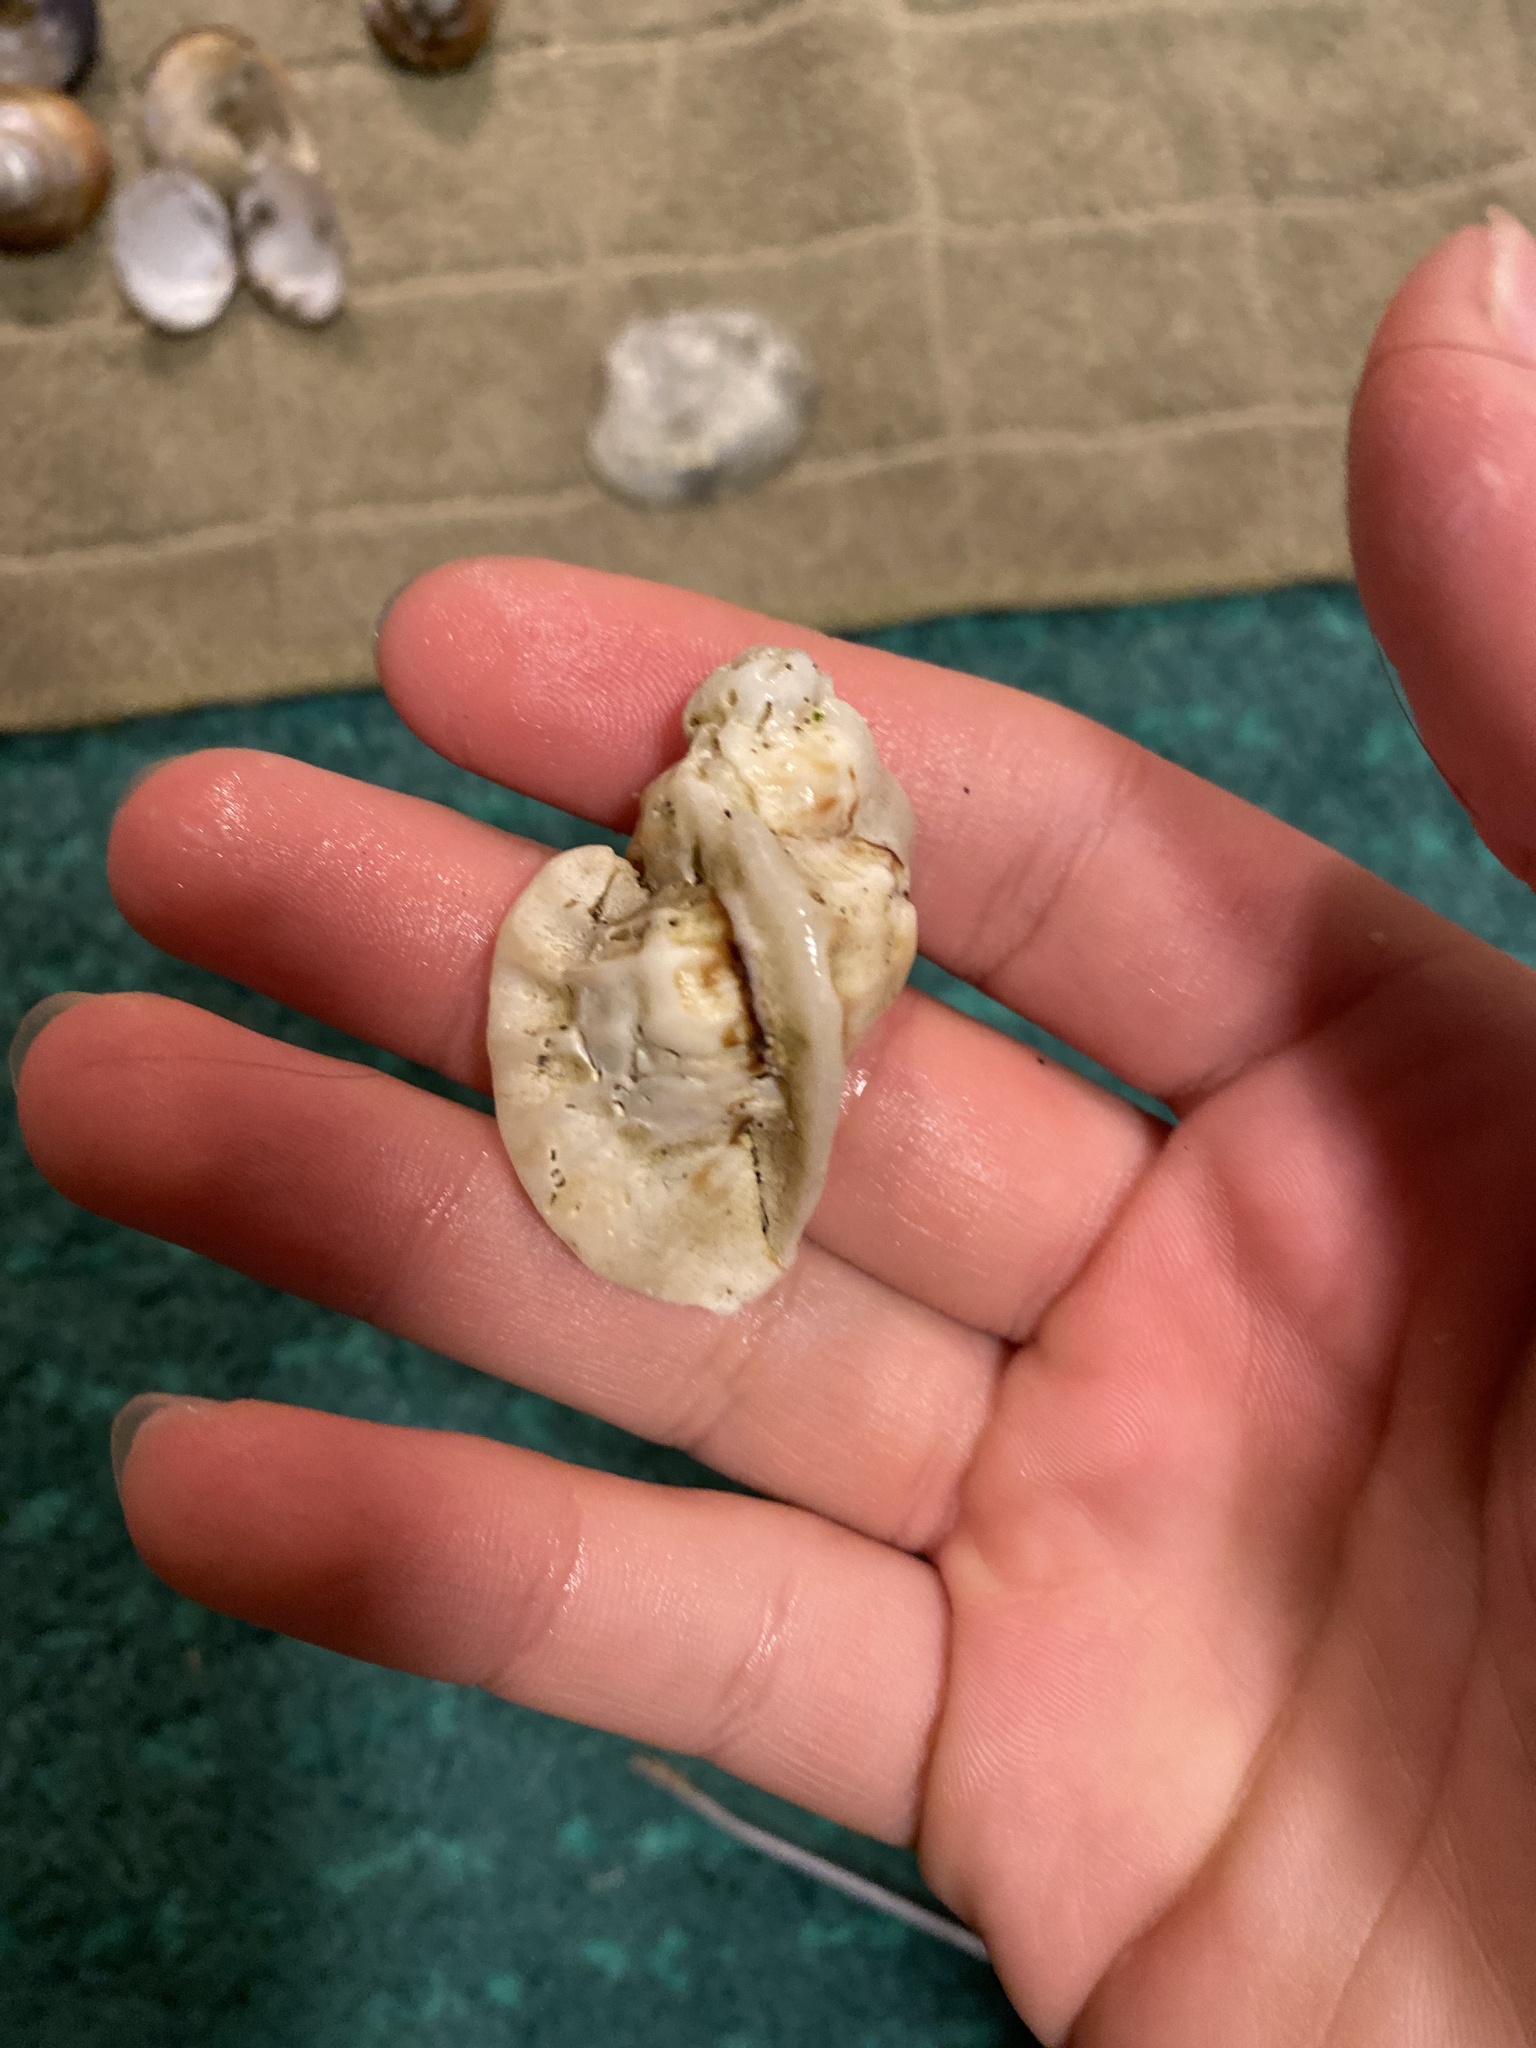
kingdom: Animalia
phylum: Mollusca
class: Gastropoda
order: Neogastropoda
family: Muricidae
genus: Ceratostoma
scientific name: Ceratostoma foliatum
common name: Foliate thorn purpura
